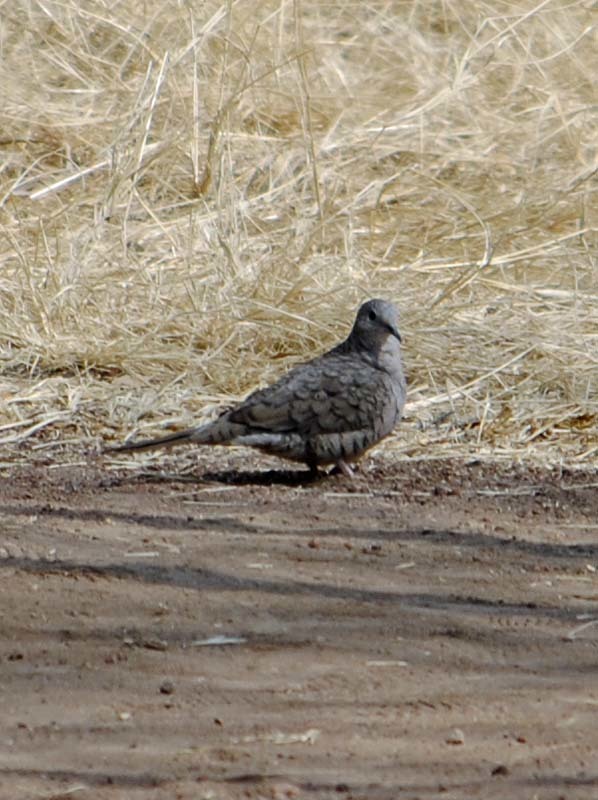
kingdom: Animalia
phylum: Chordata
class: Aves
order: Columbiformes
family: Columbidae
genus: Columbina
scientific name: Columbina inca
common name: Inca dove
